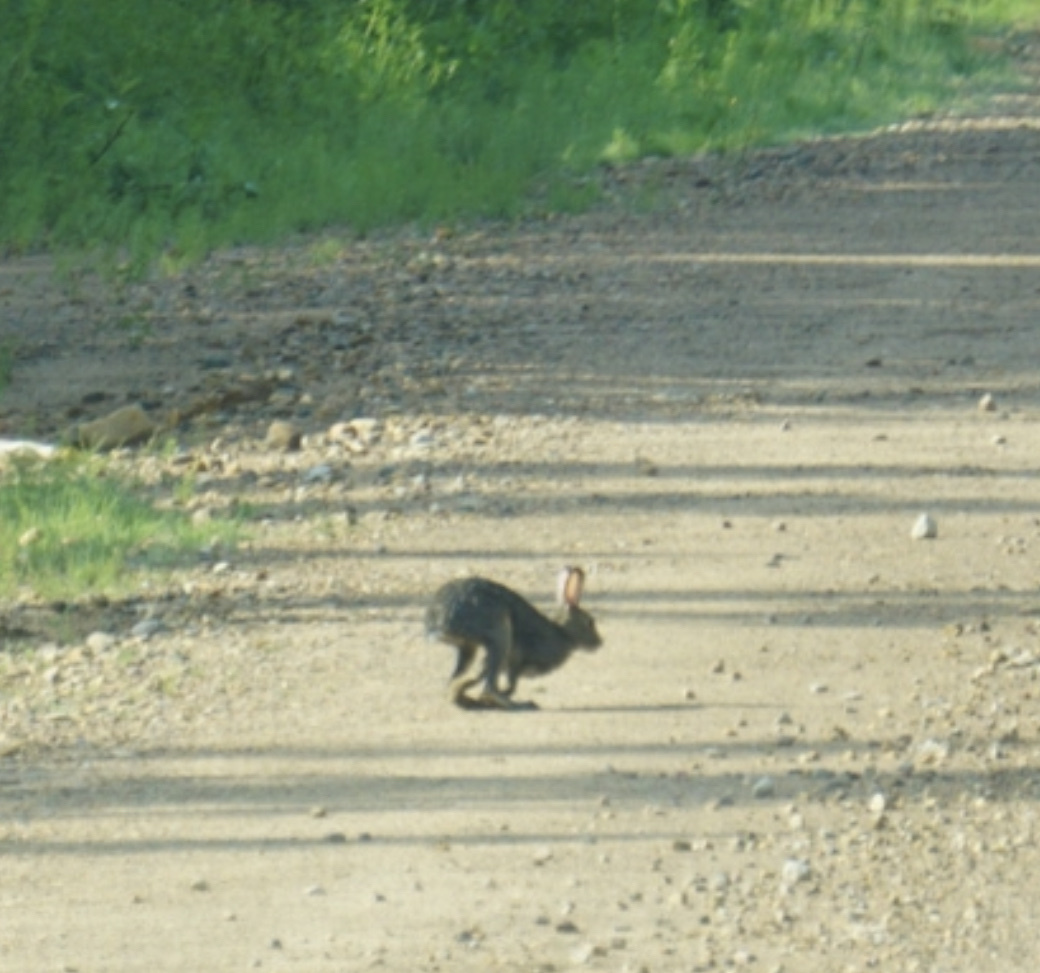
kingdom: Animalia
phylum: Chordata
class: Mammalia
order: Lagomorpha
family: Leporidae
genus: Lepus
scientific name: Lepus americanus
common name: Snowshoe hare
